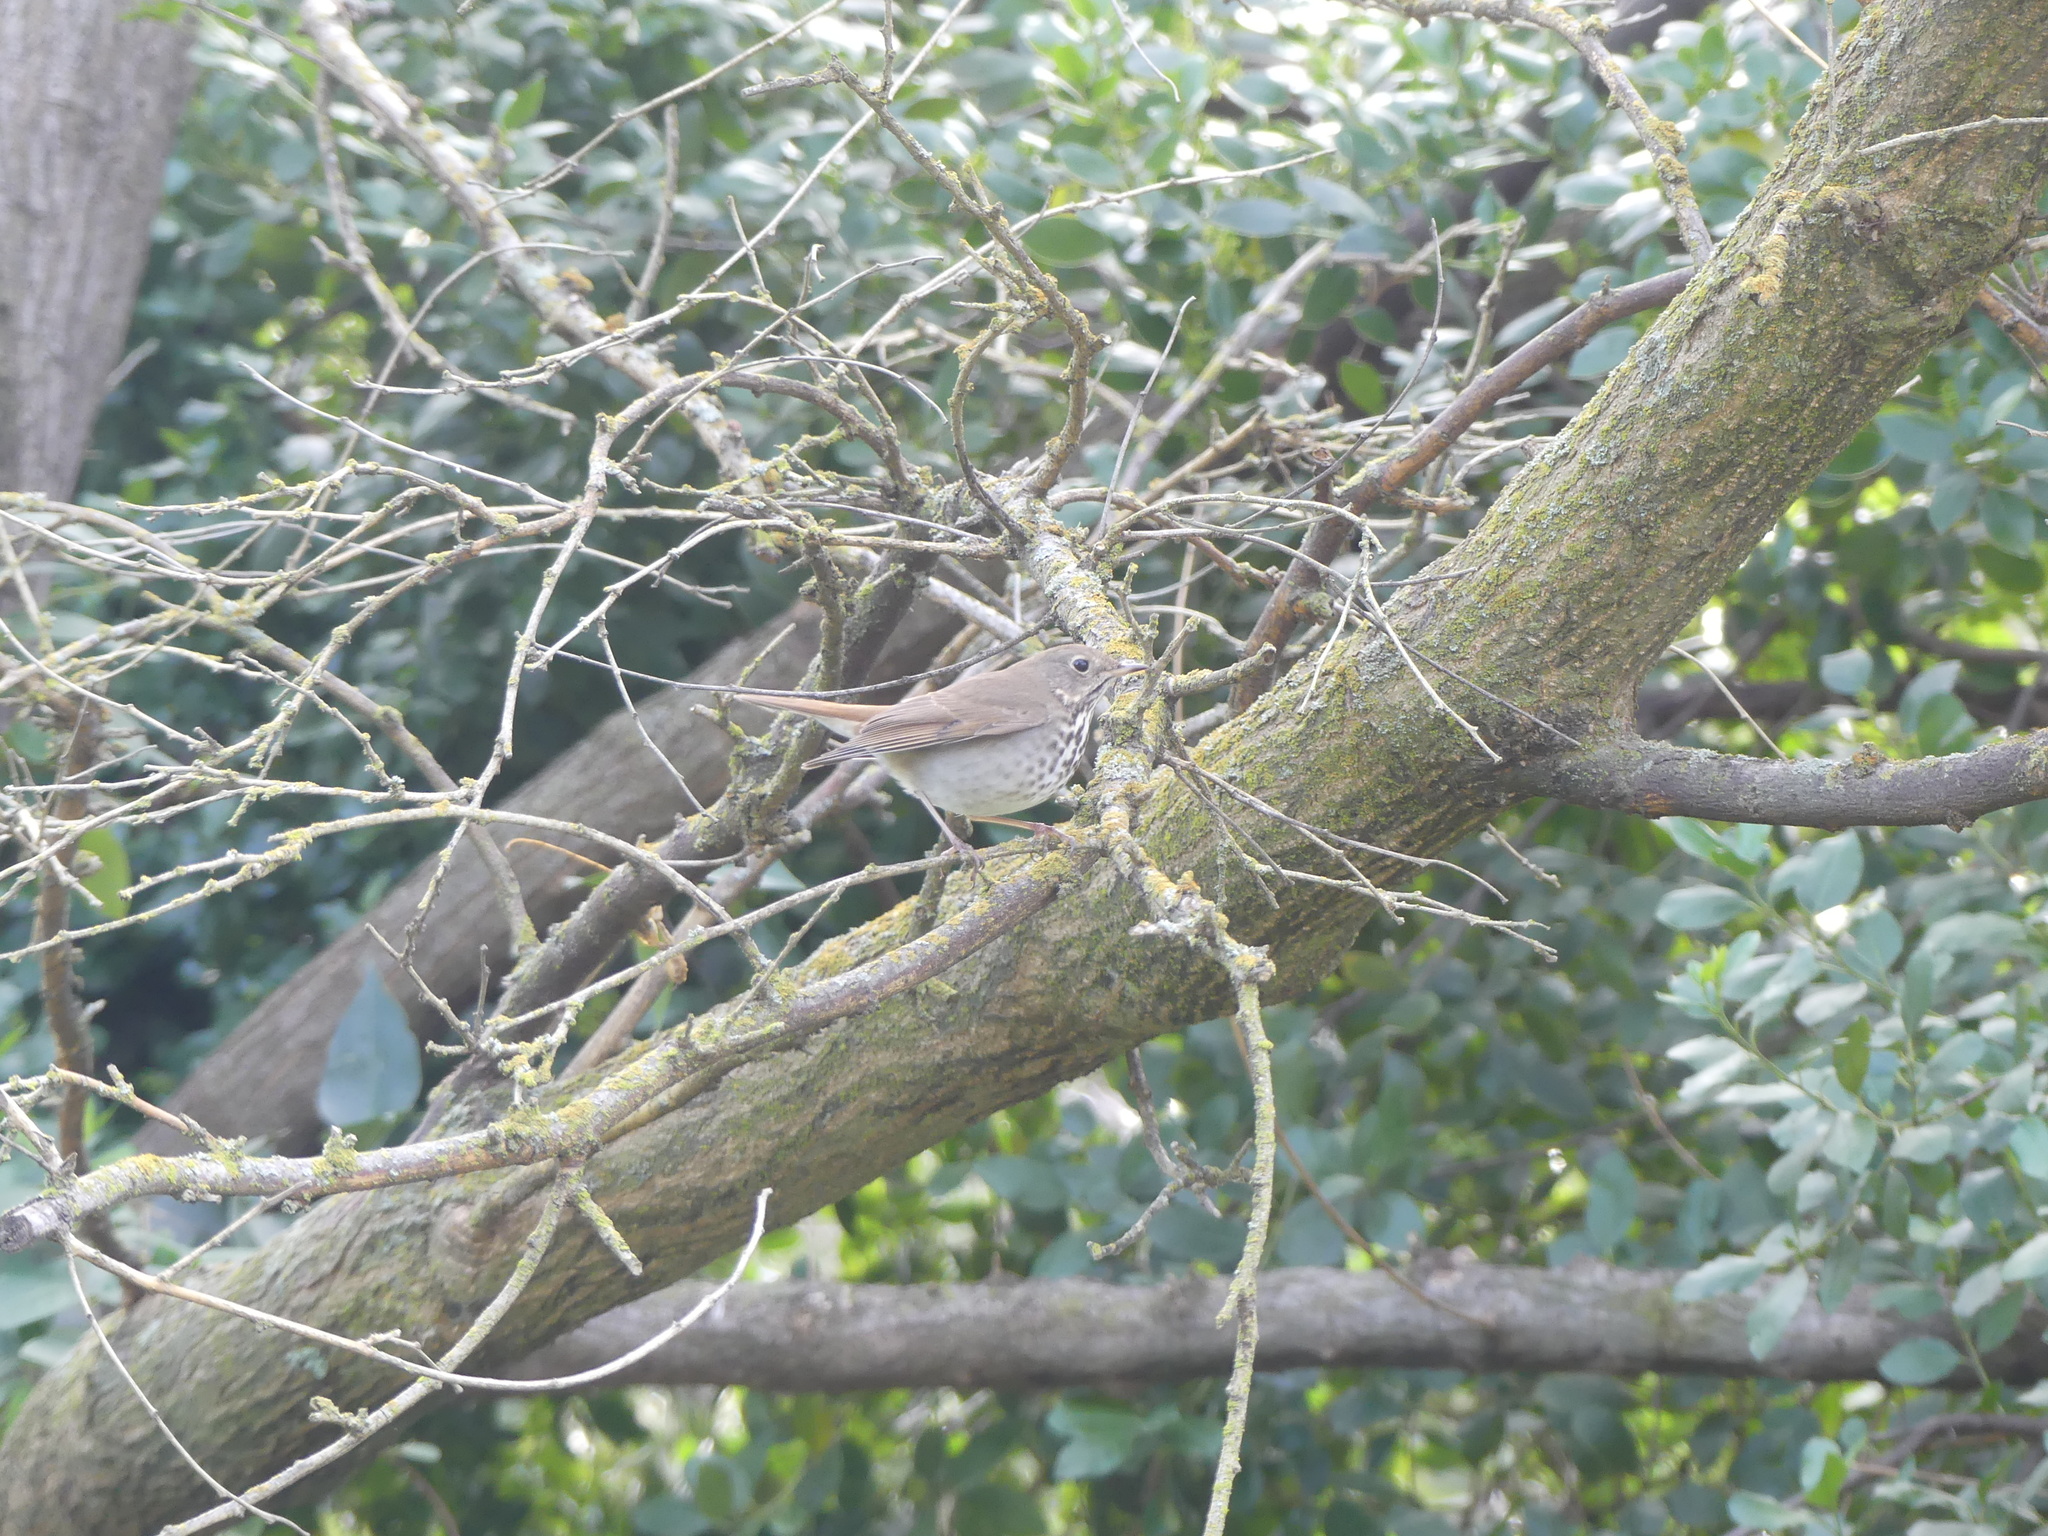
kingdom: Animalia
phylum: Chordata
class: Aves
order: Passeriformes
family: Turdidae
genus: Catharus
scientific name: Catharus guttatus
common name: Hermit thrush
